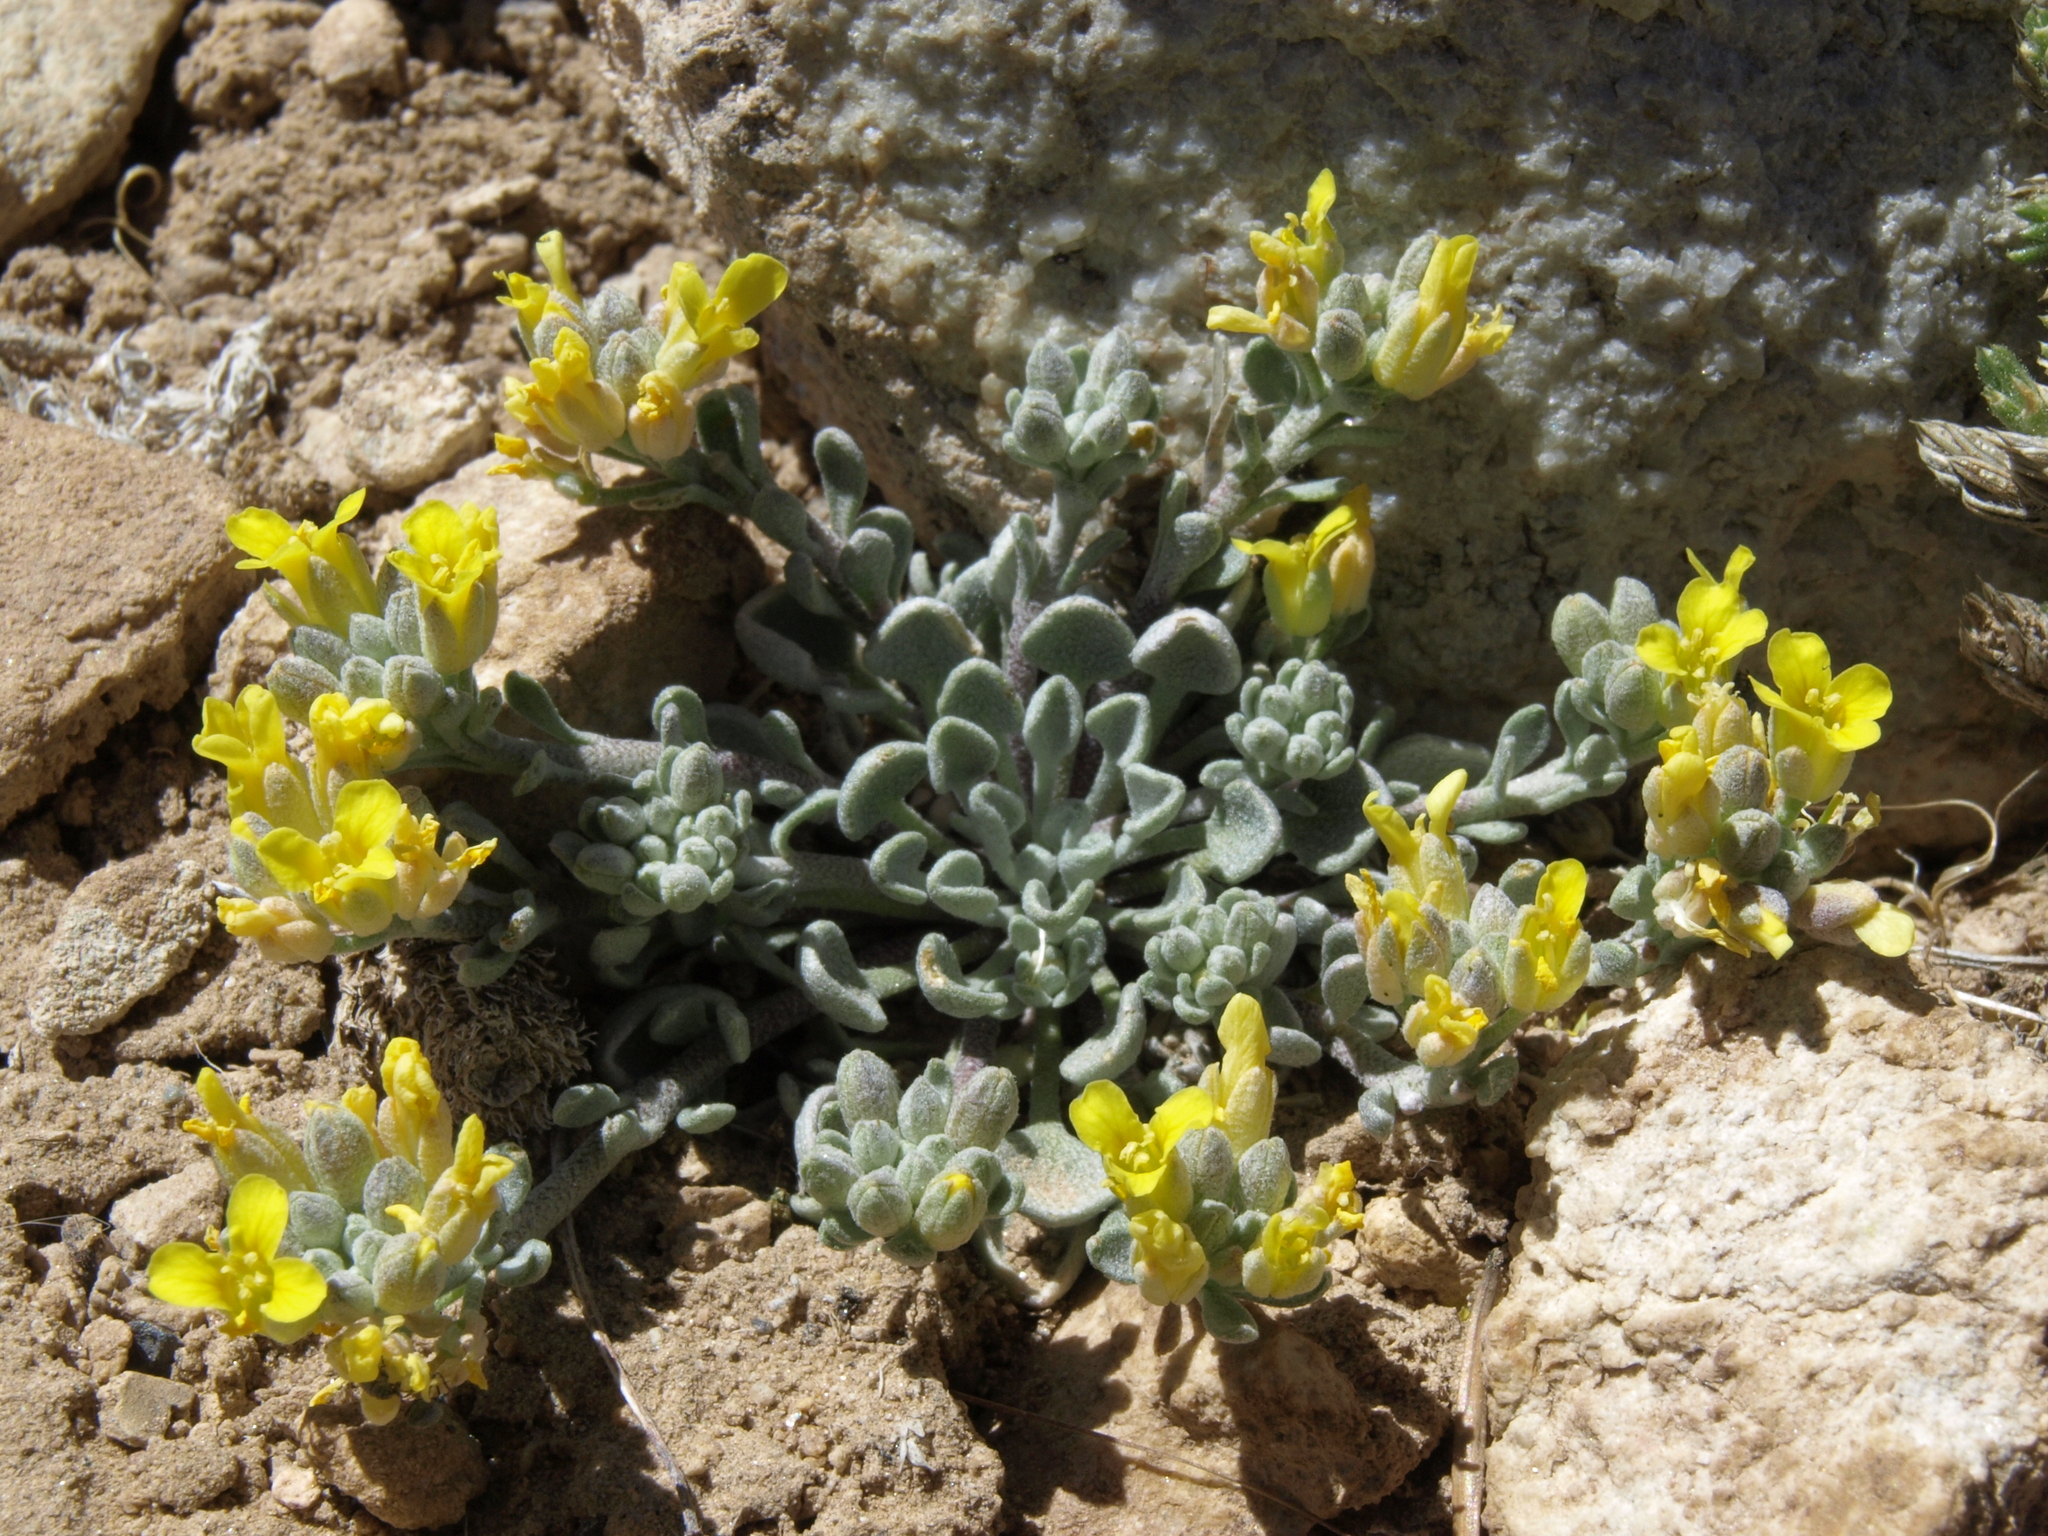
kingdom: Plantae
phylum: Tracheophyta
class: Magnoliopsida
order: Brassicales
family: Brassicaceae
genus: Physaria
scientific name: Physaria kingii
